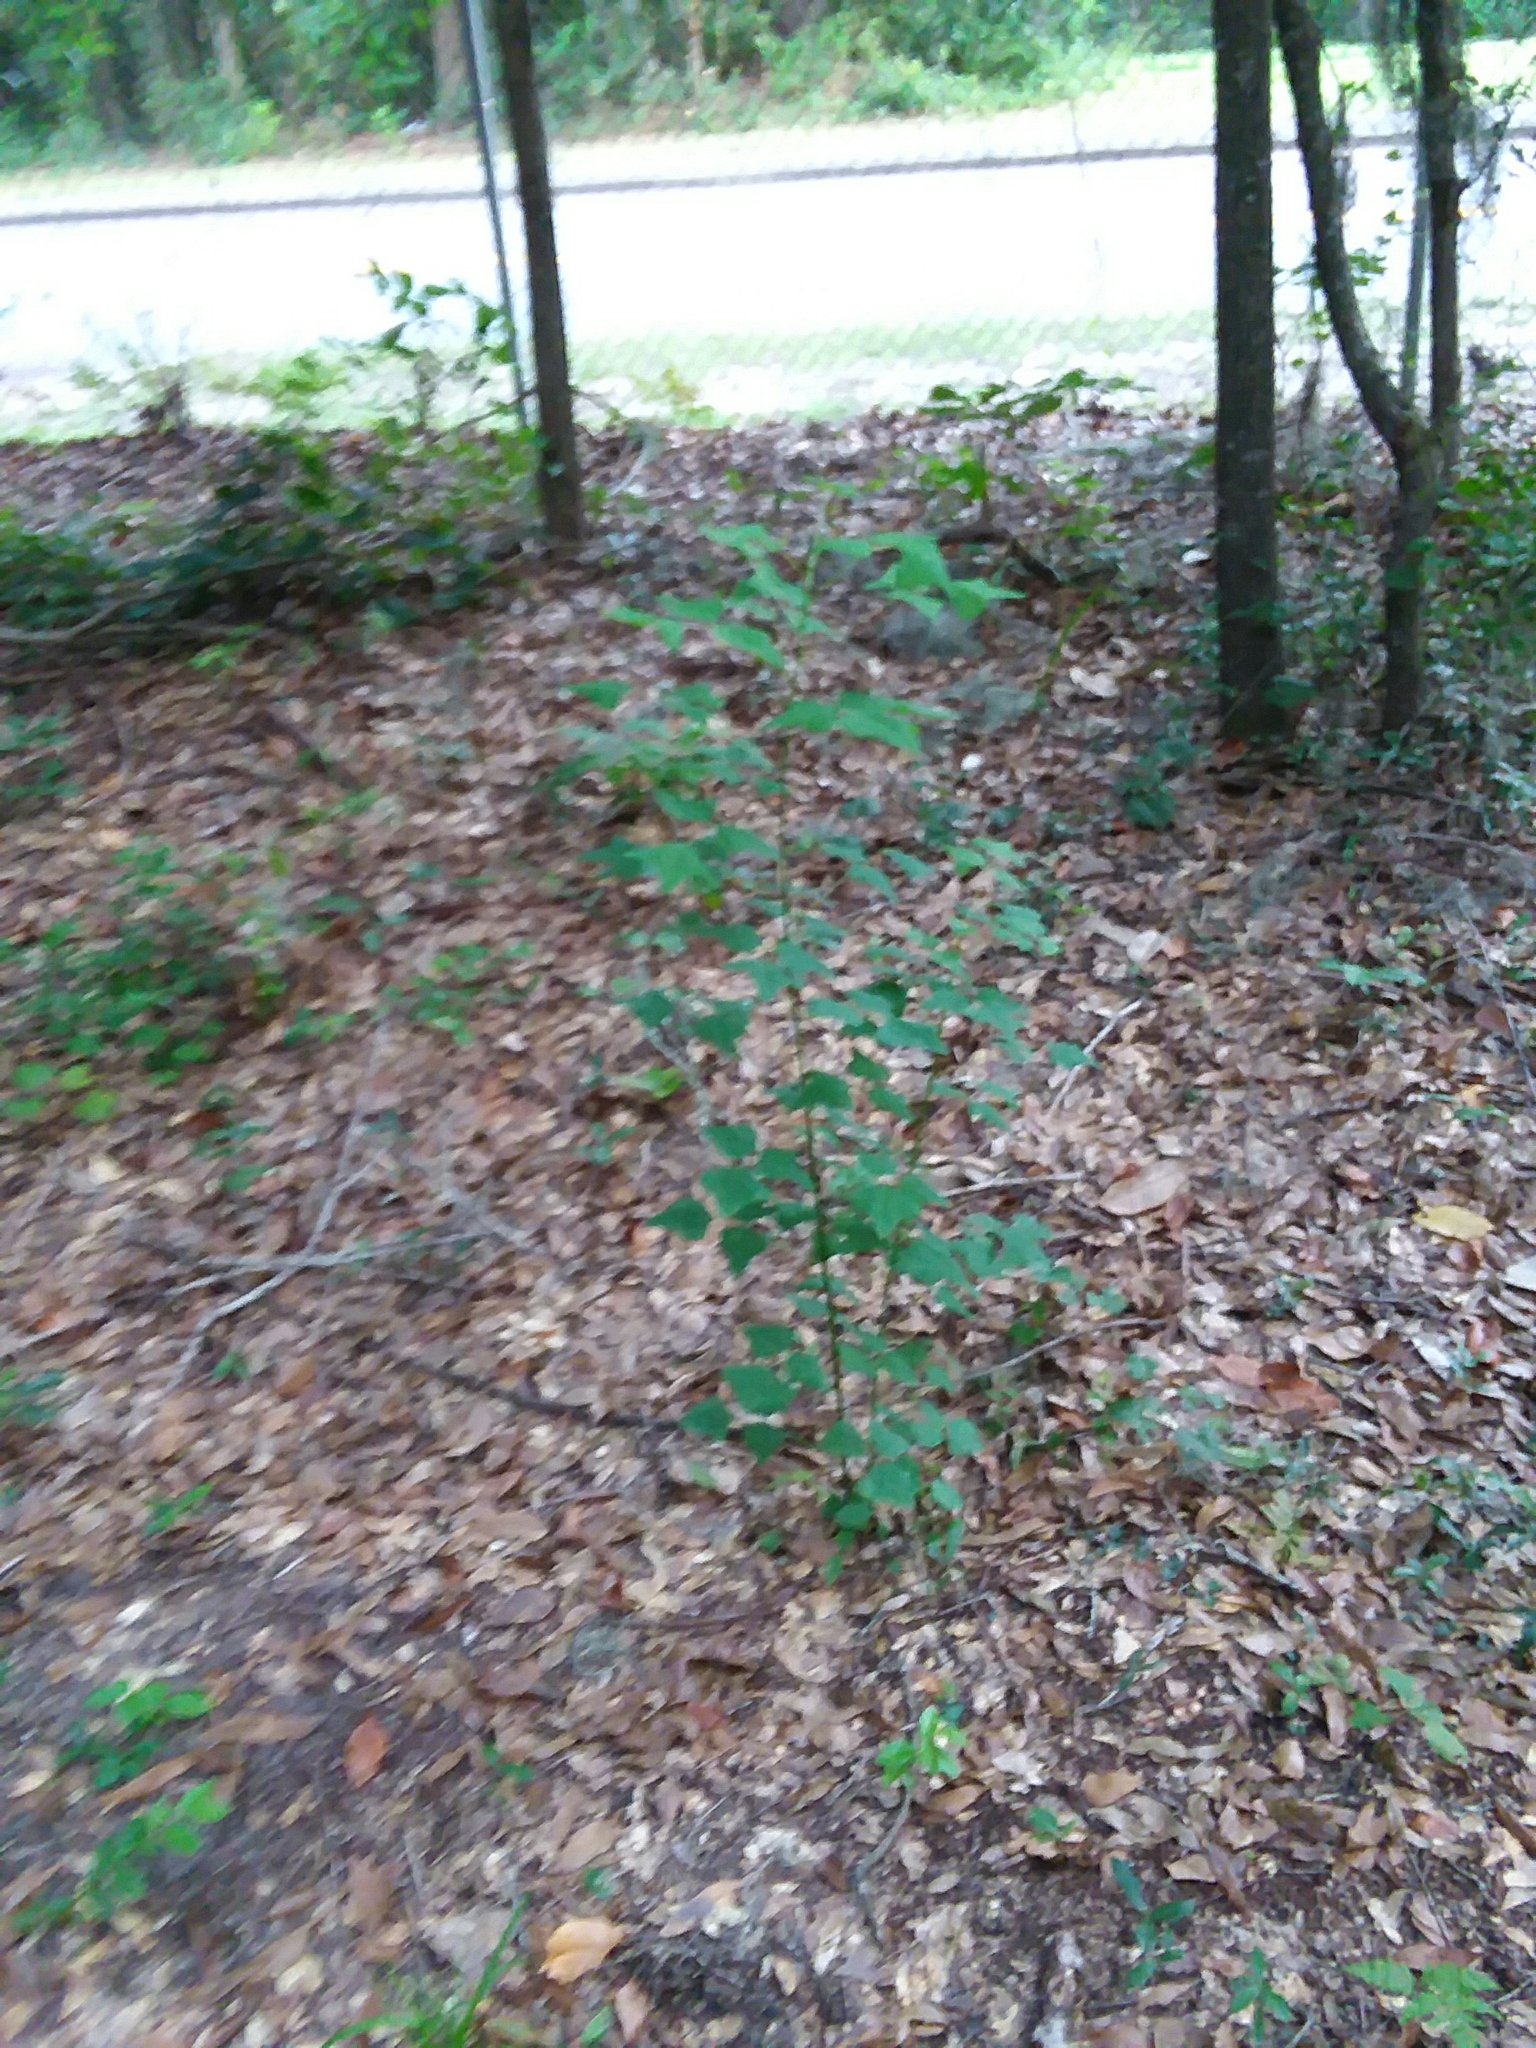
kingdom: Plantae
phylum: Tracheophyta
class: Magnoliopsida
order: Fabales
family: Fabaceae
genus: Erythrina
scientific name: Erythrina herbacea
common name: Coral-bean
